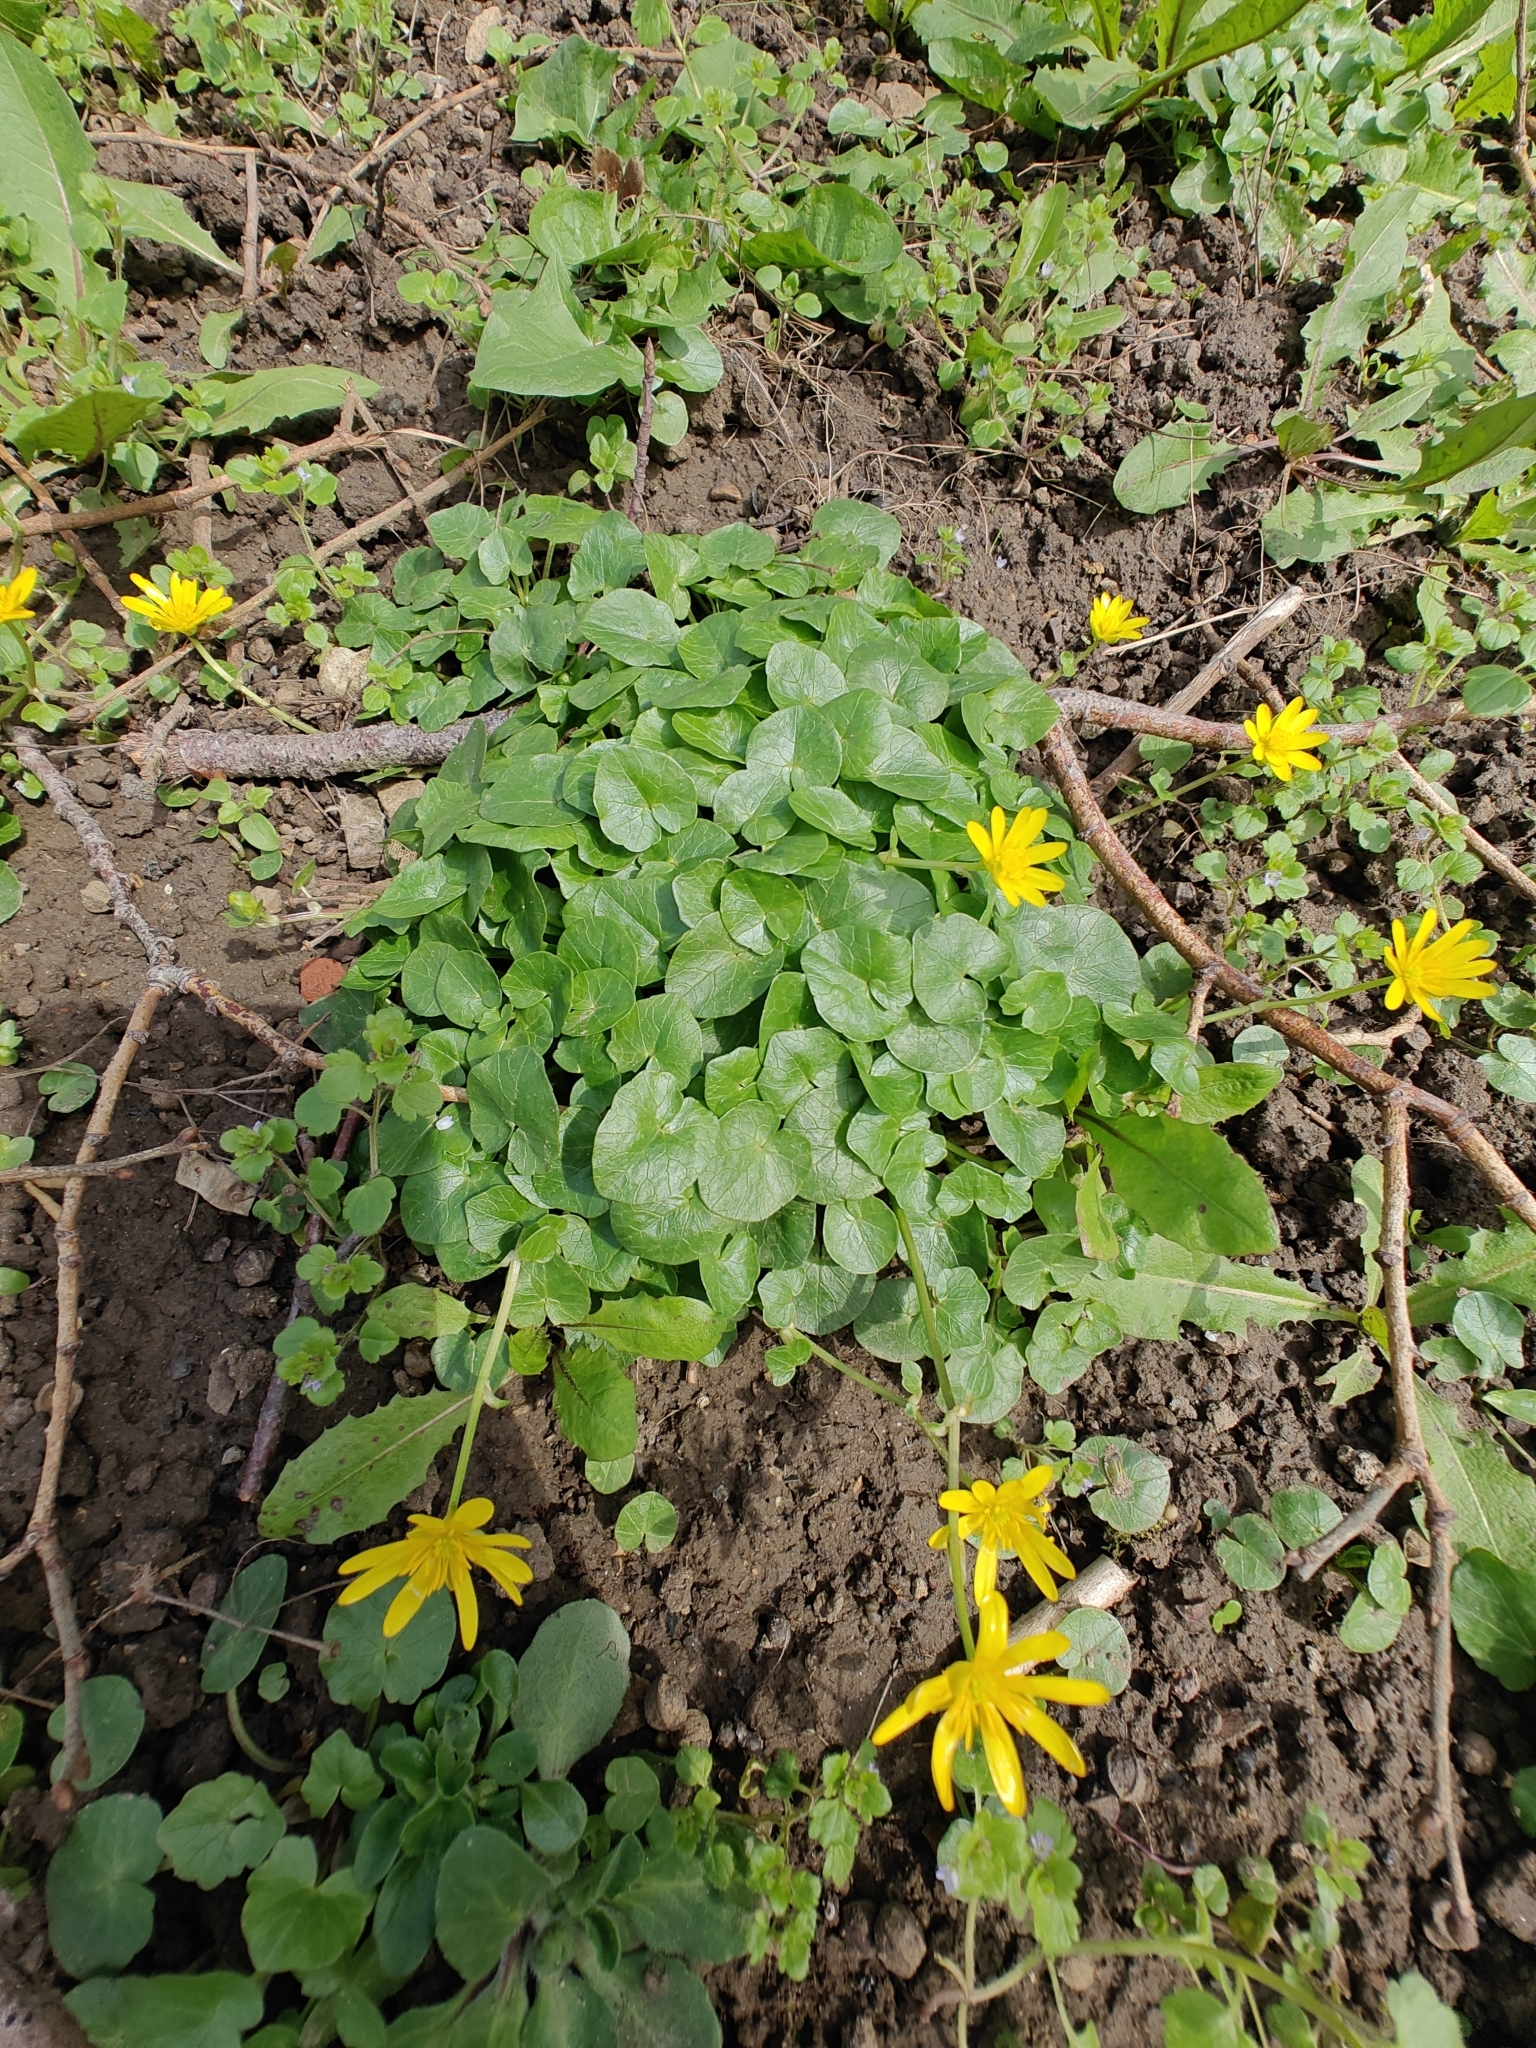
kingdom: Plantae
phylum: Tracheophyta
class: Magnoliopsida
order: Ranunculales
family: Ranunculaceae
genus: Ficaria
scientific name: Ficaria verna
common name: Lesser celandine
